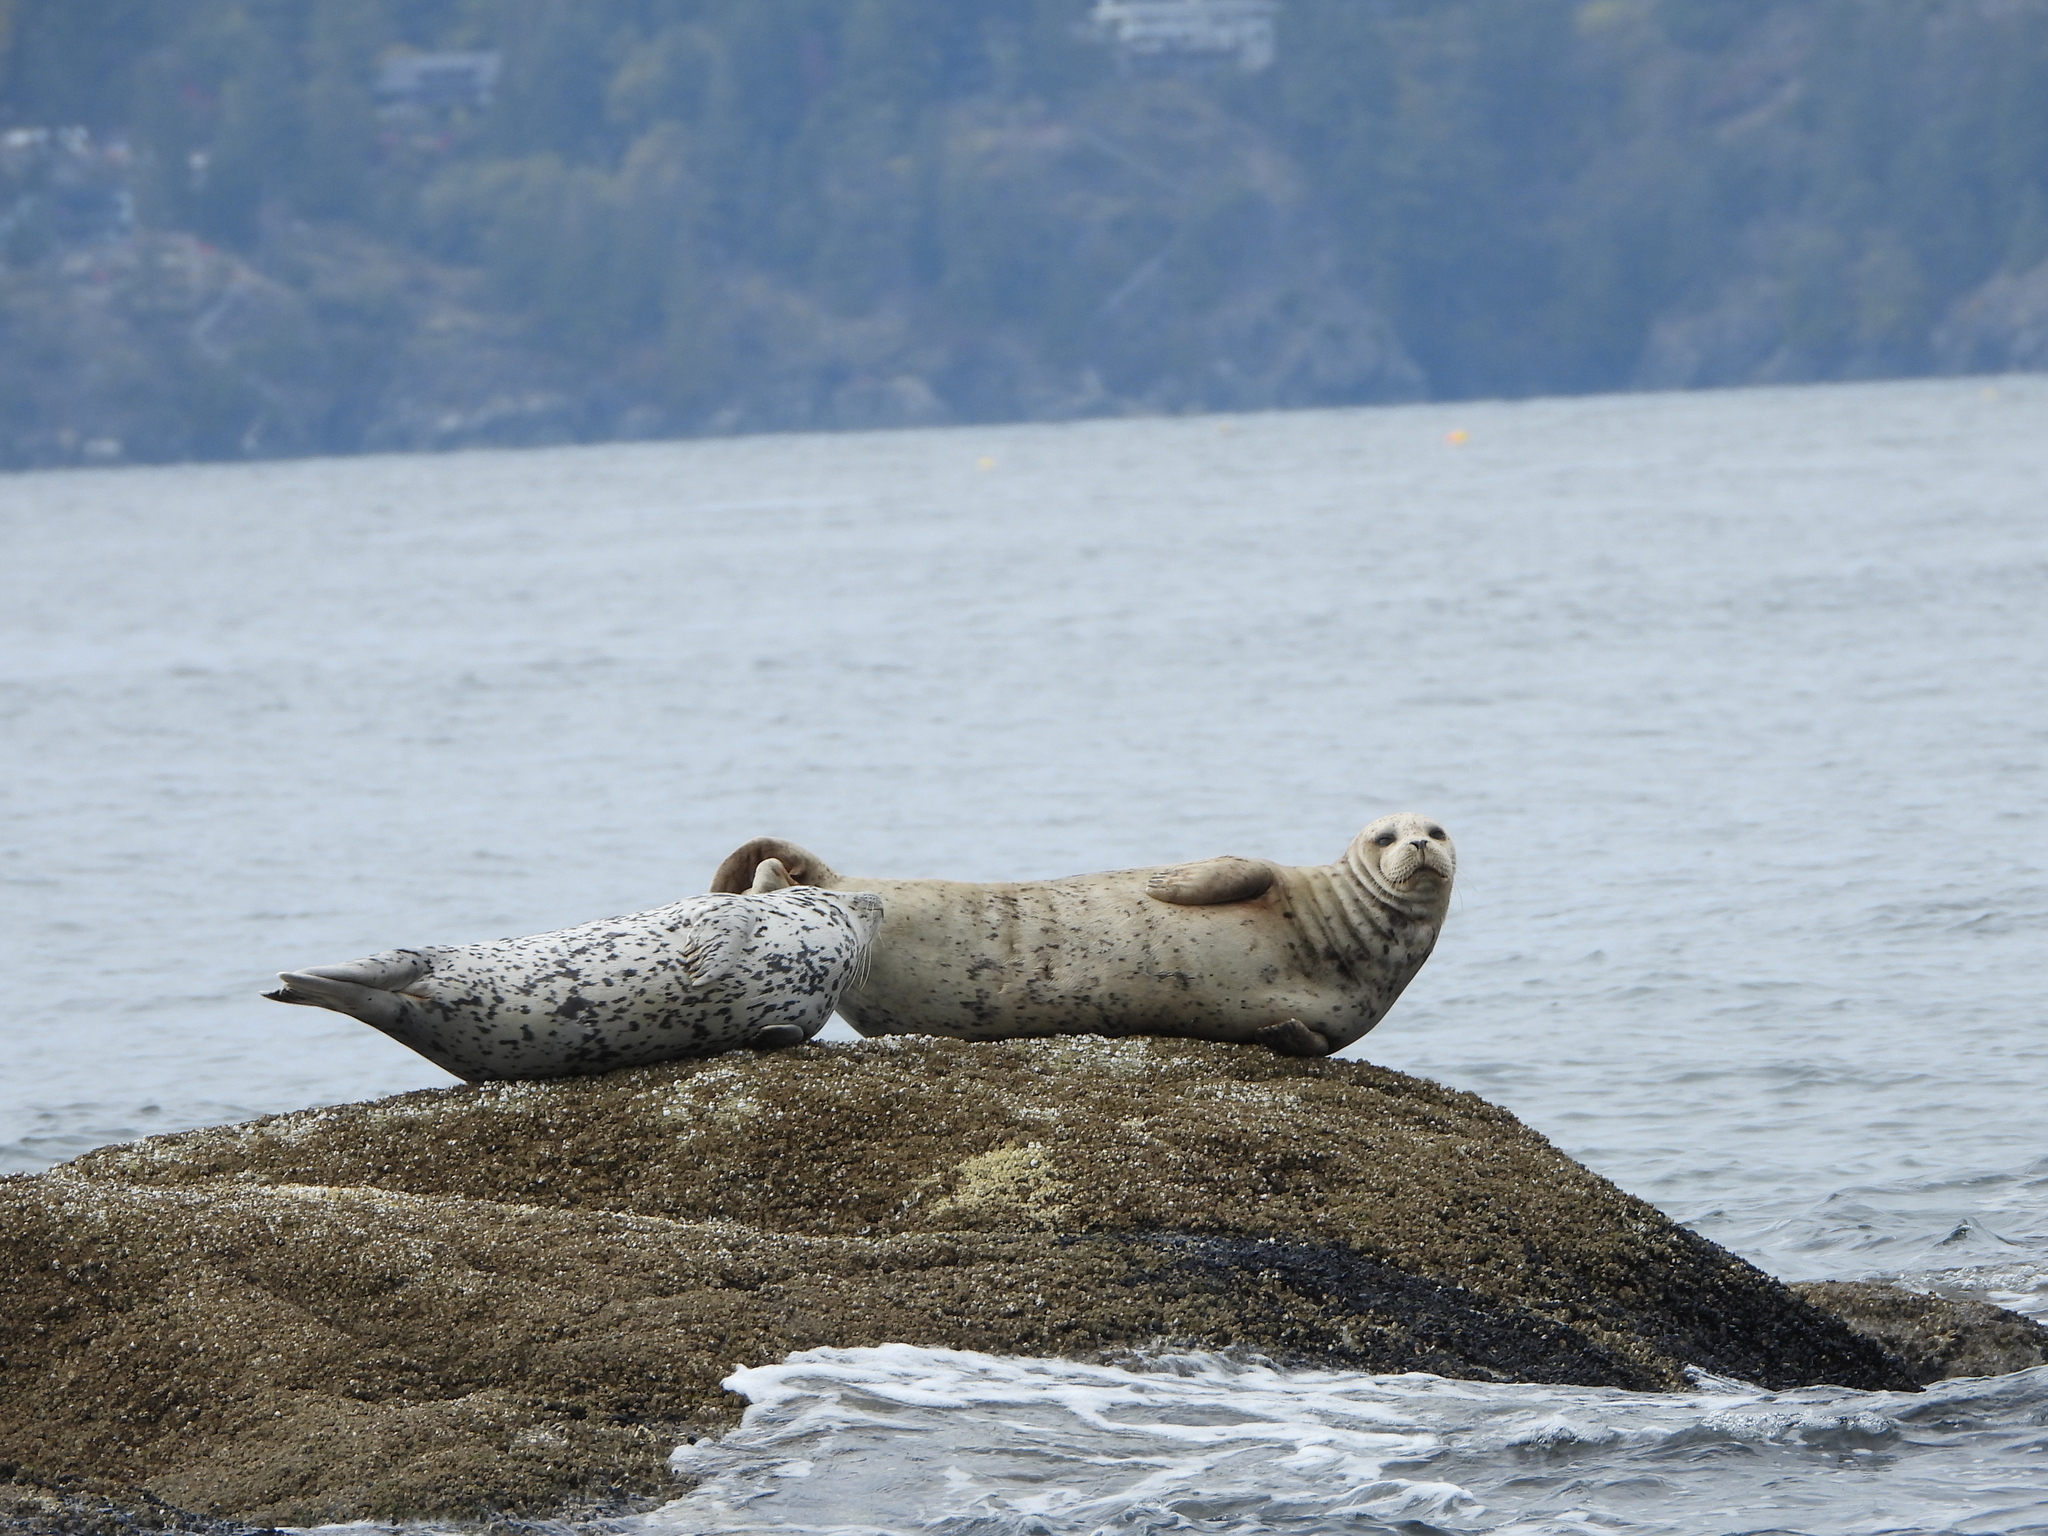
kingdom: Animalia
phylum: Chordata
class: Mammalia
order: Carnivora
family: Phocidae
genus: Phoca
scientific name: Phoca vitulina
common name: Harbor seal
